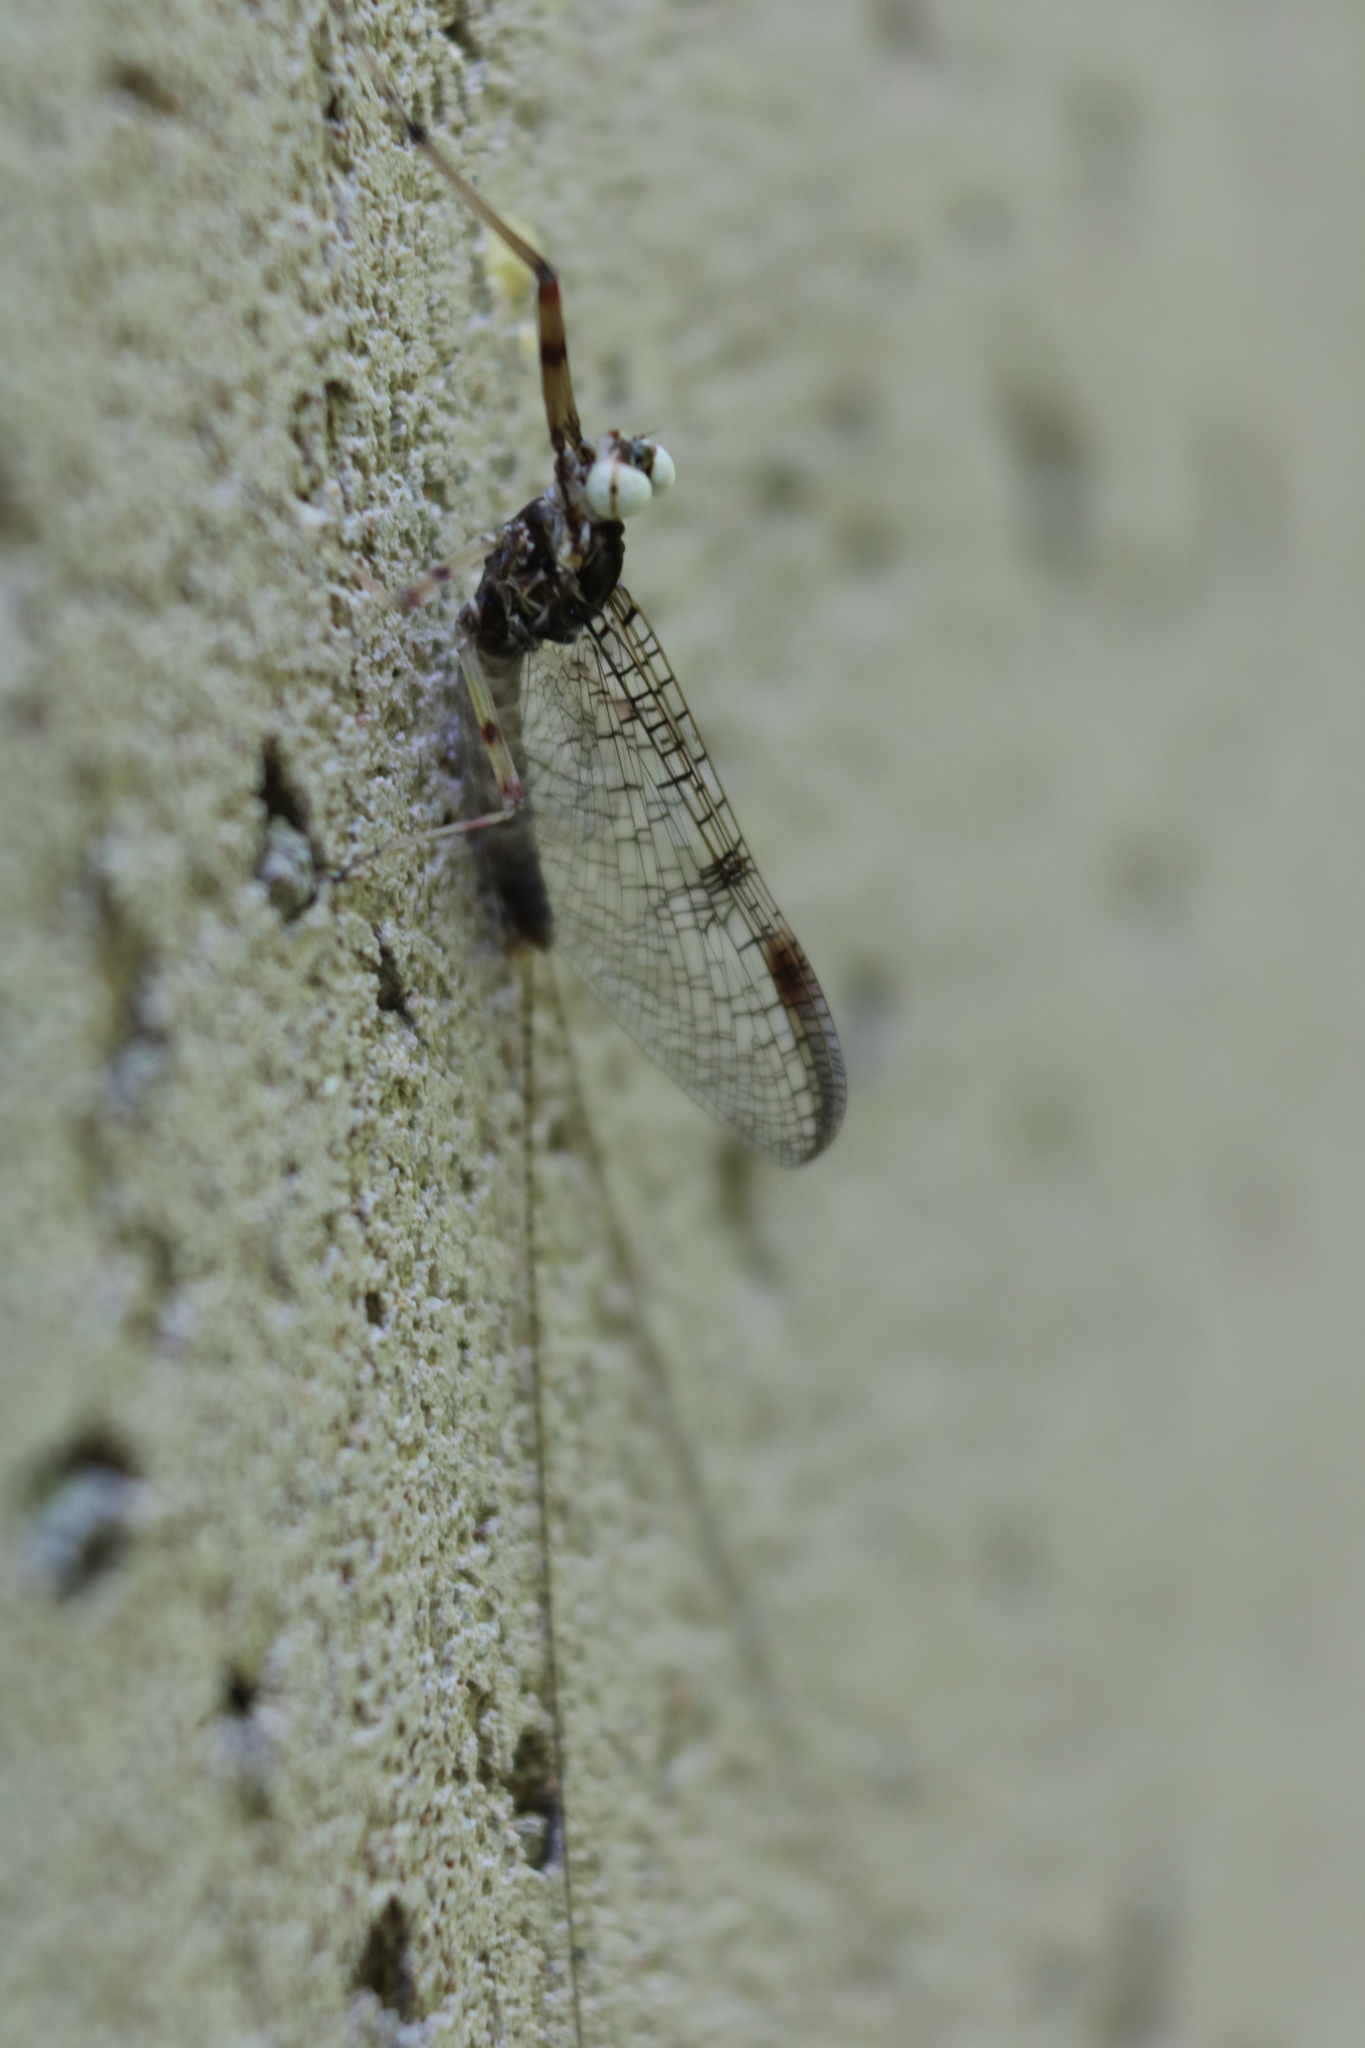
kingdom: Animalia
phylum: Arthropoda
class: Insecta
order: Ephemeroptera
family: Heptageniidae
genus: Stenonema
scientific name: Stenonema femoratum
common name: Dark cahill
